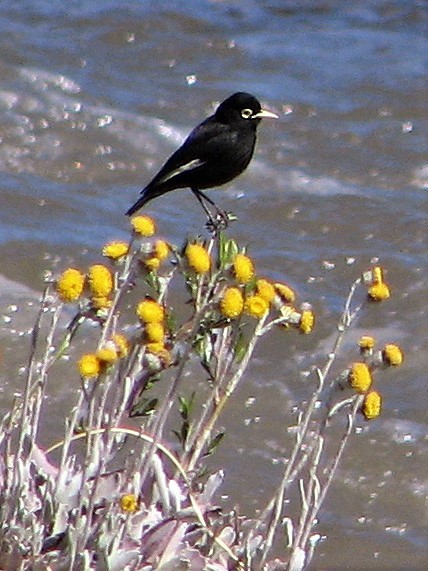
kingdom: Animalia
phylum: Chordata
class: Aves
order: Passeriformes
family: Tyrannidae
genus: Hymenops
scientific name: Hymenops perspicillatus
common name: Spectacled tyrant
